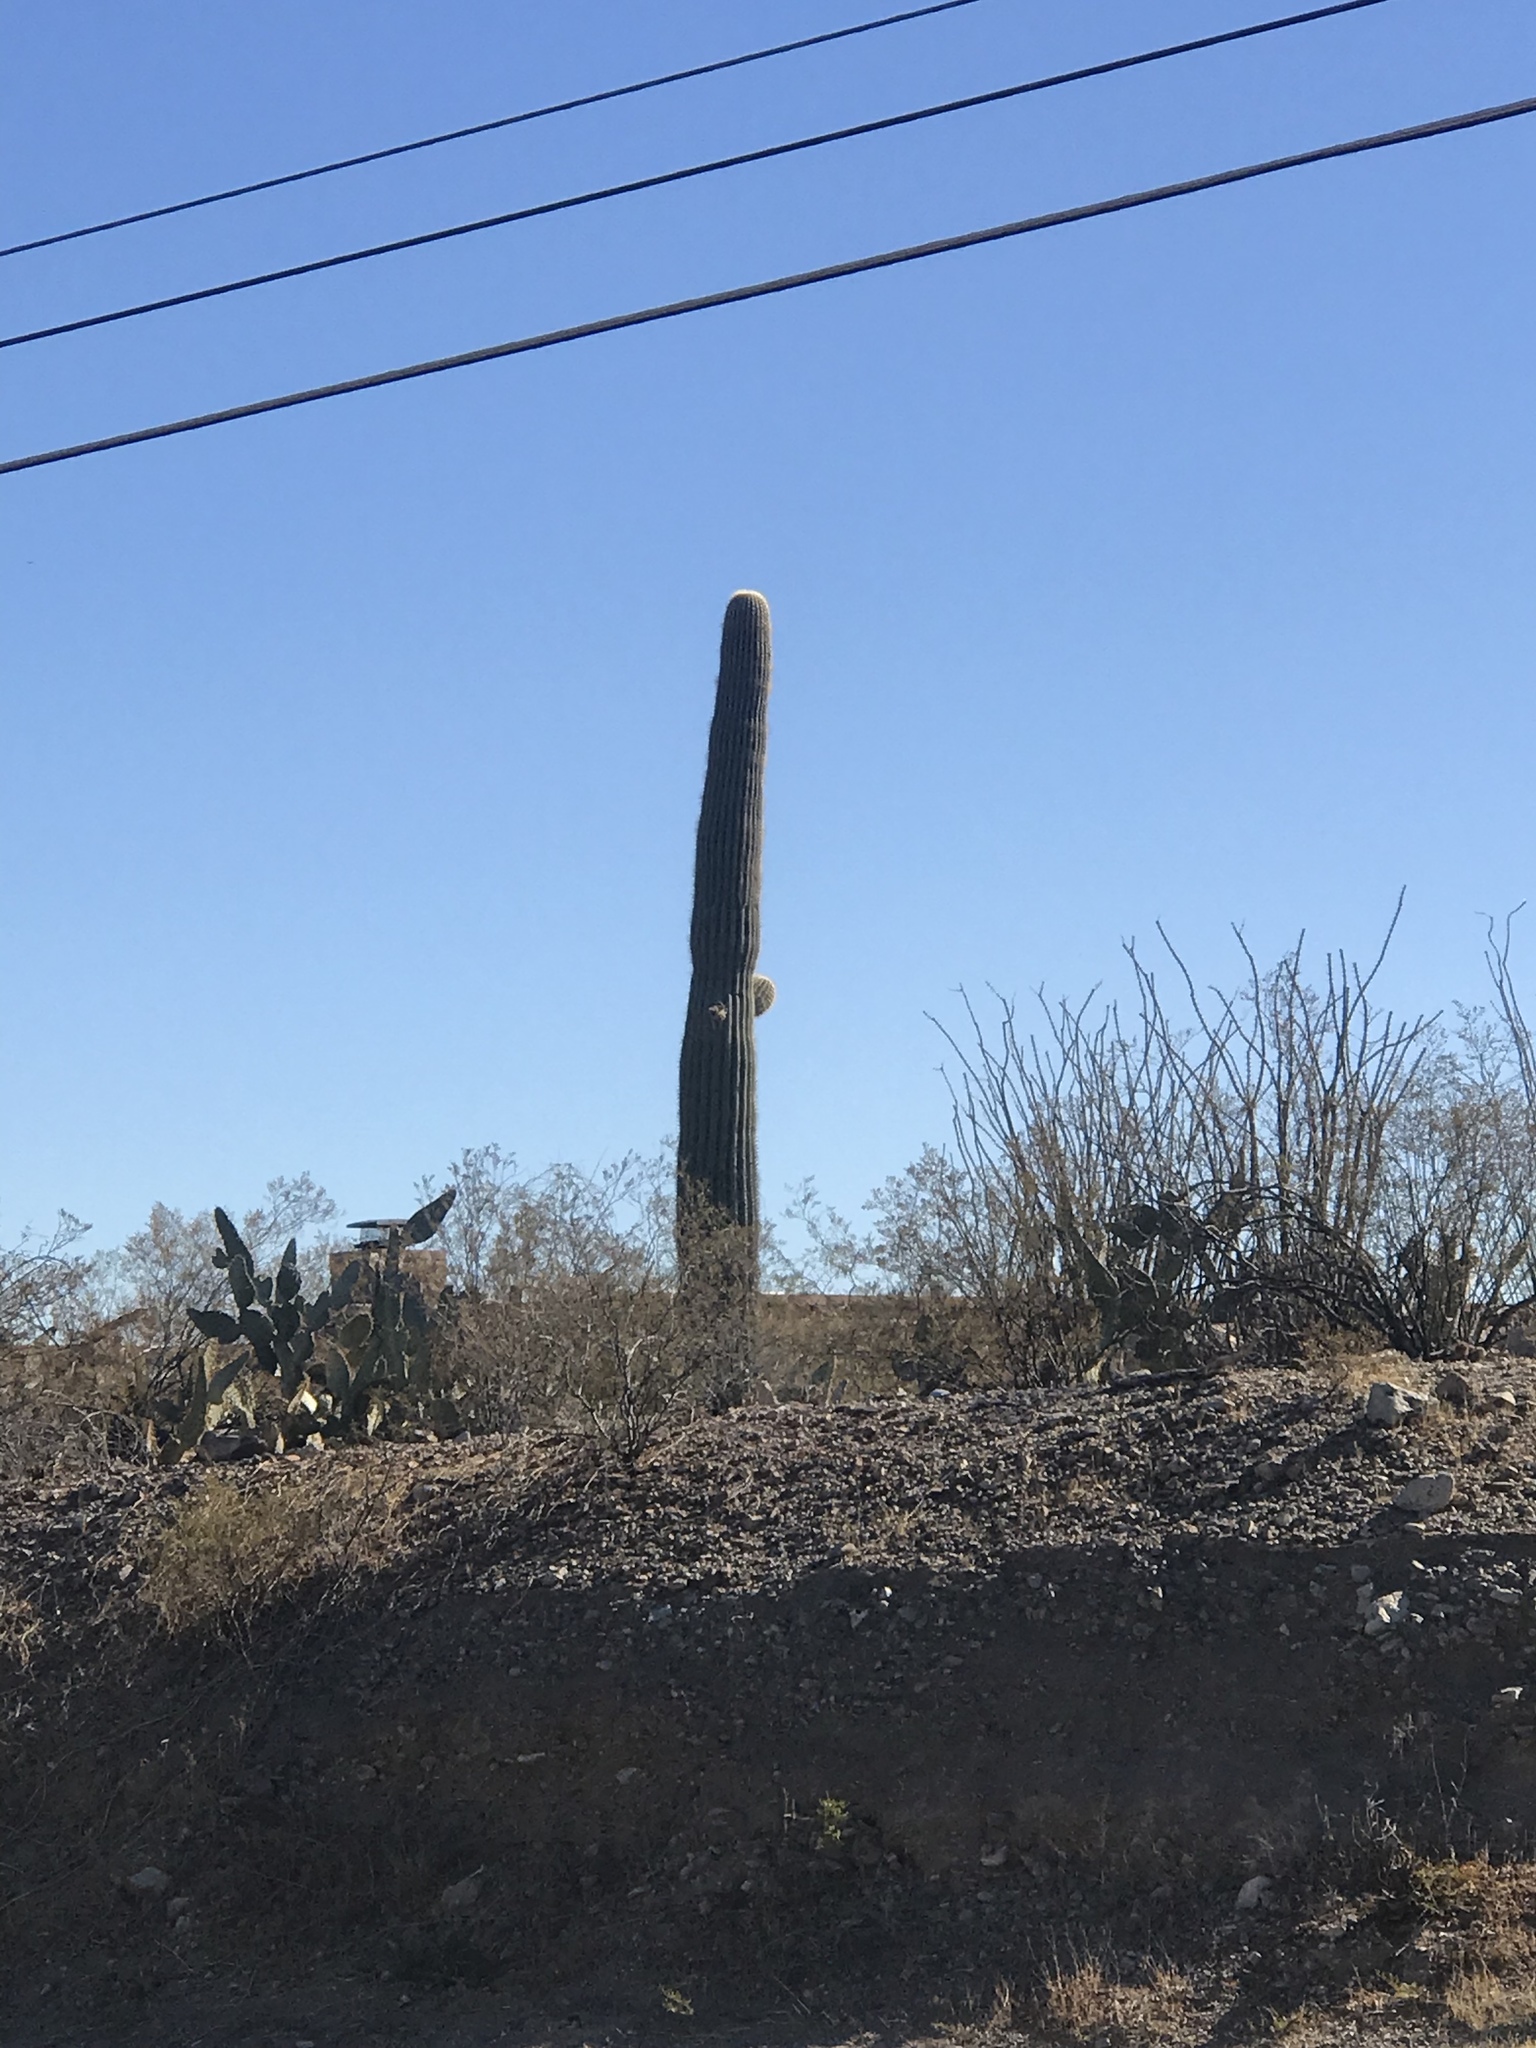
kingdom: Plantae
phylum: Tracheophyta
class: Magnoliopsida
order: Caryophyllales
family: Cactaceae
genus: Carnegiea
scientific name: Carnegiea gigantea
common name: Saguaro
